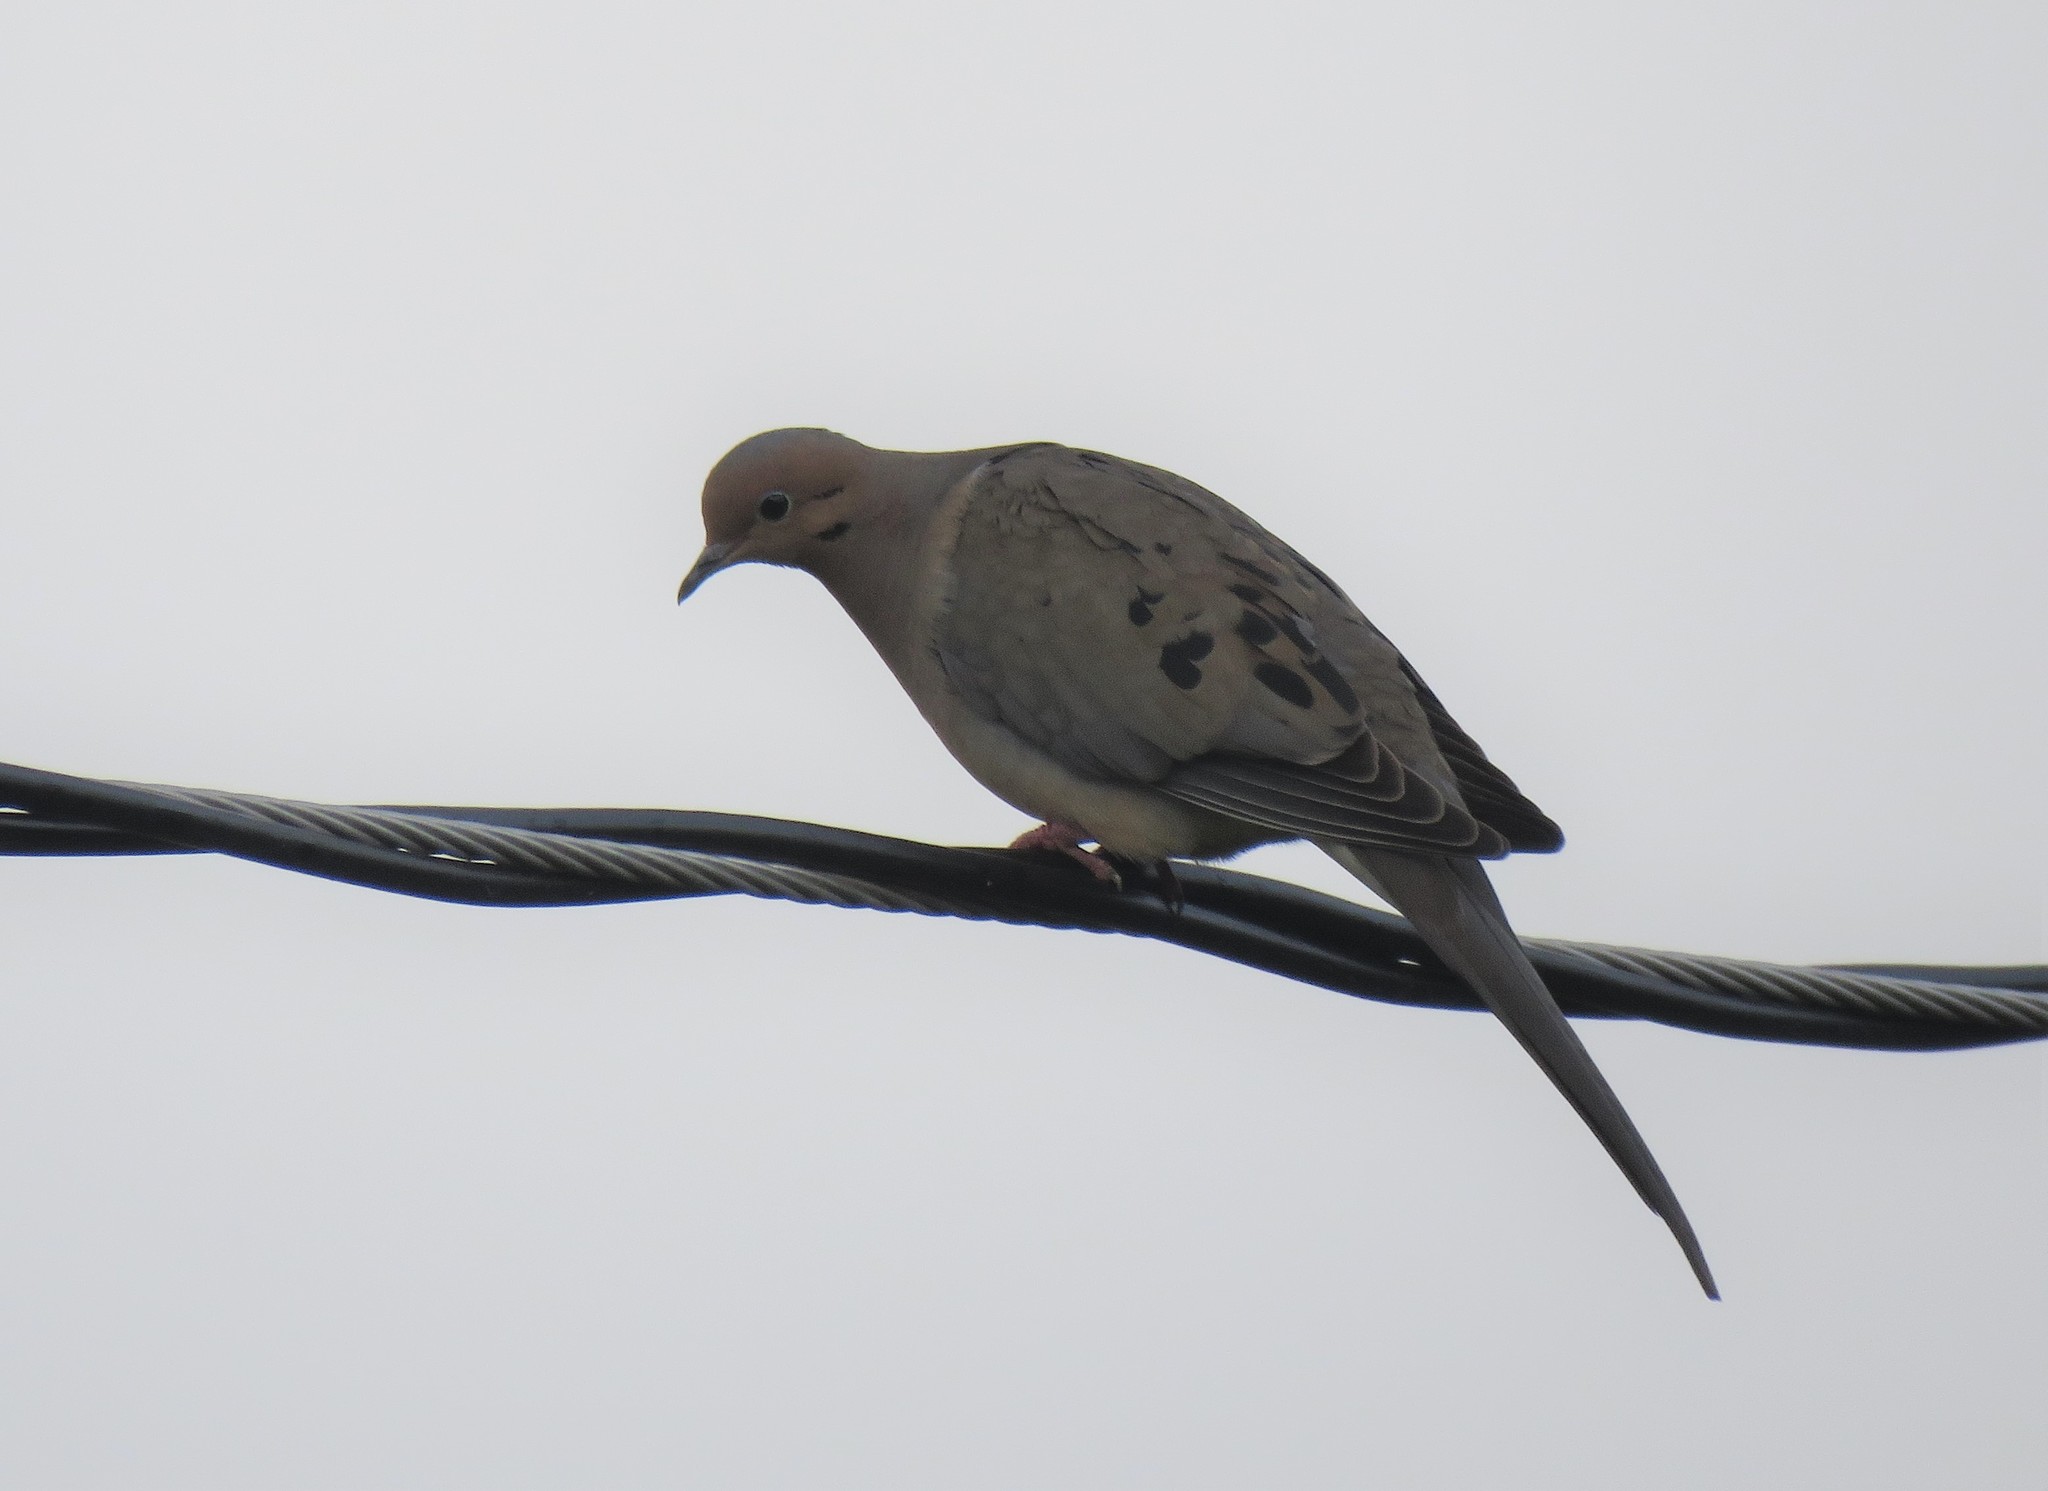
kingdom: Animalia
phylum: Chordata
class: Aves
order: Columbiformes
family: Columbidae
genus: Zenaida
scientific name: Zenaida macroura
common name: Mourning dove
